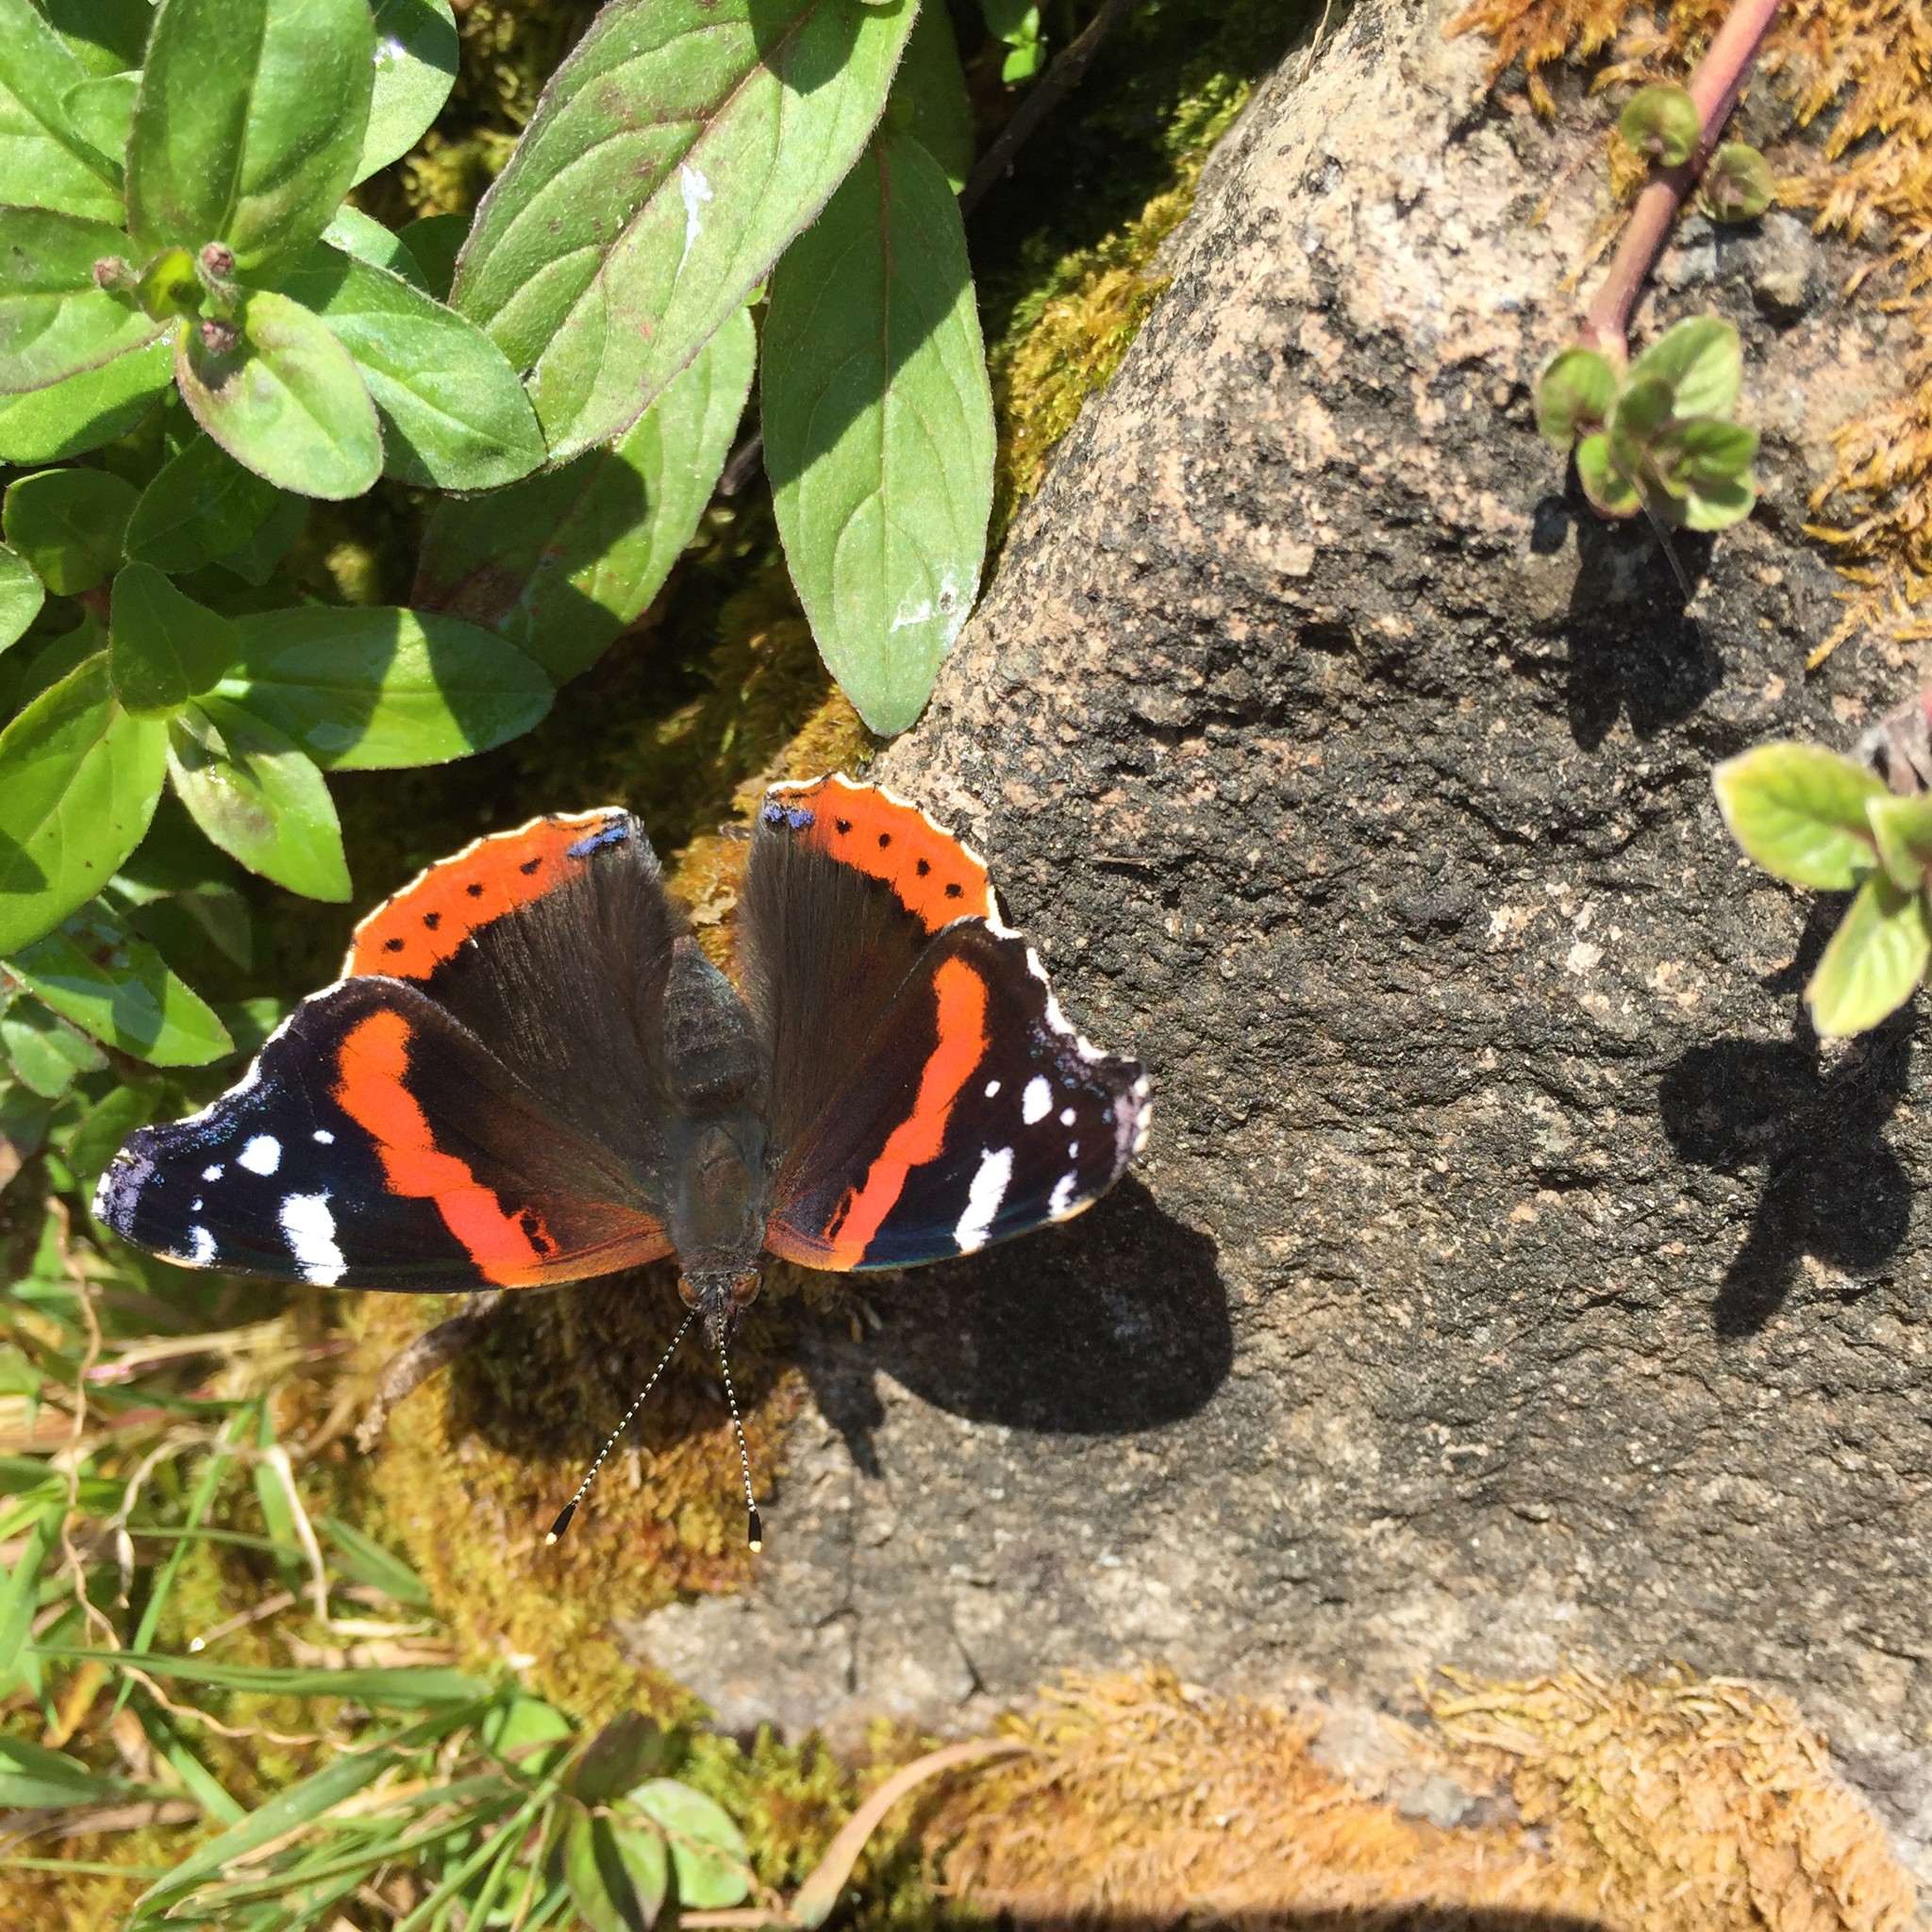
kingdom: Animalia
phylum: Arthropoda
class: Insecta
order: Lepidoptera
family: Nymphalidae
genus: Vanessa
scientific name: Vanessa atalanta
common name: Red admiral
